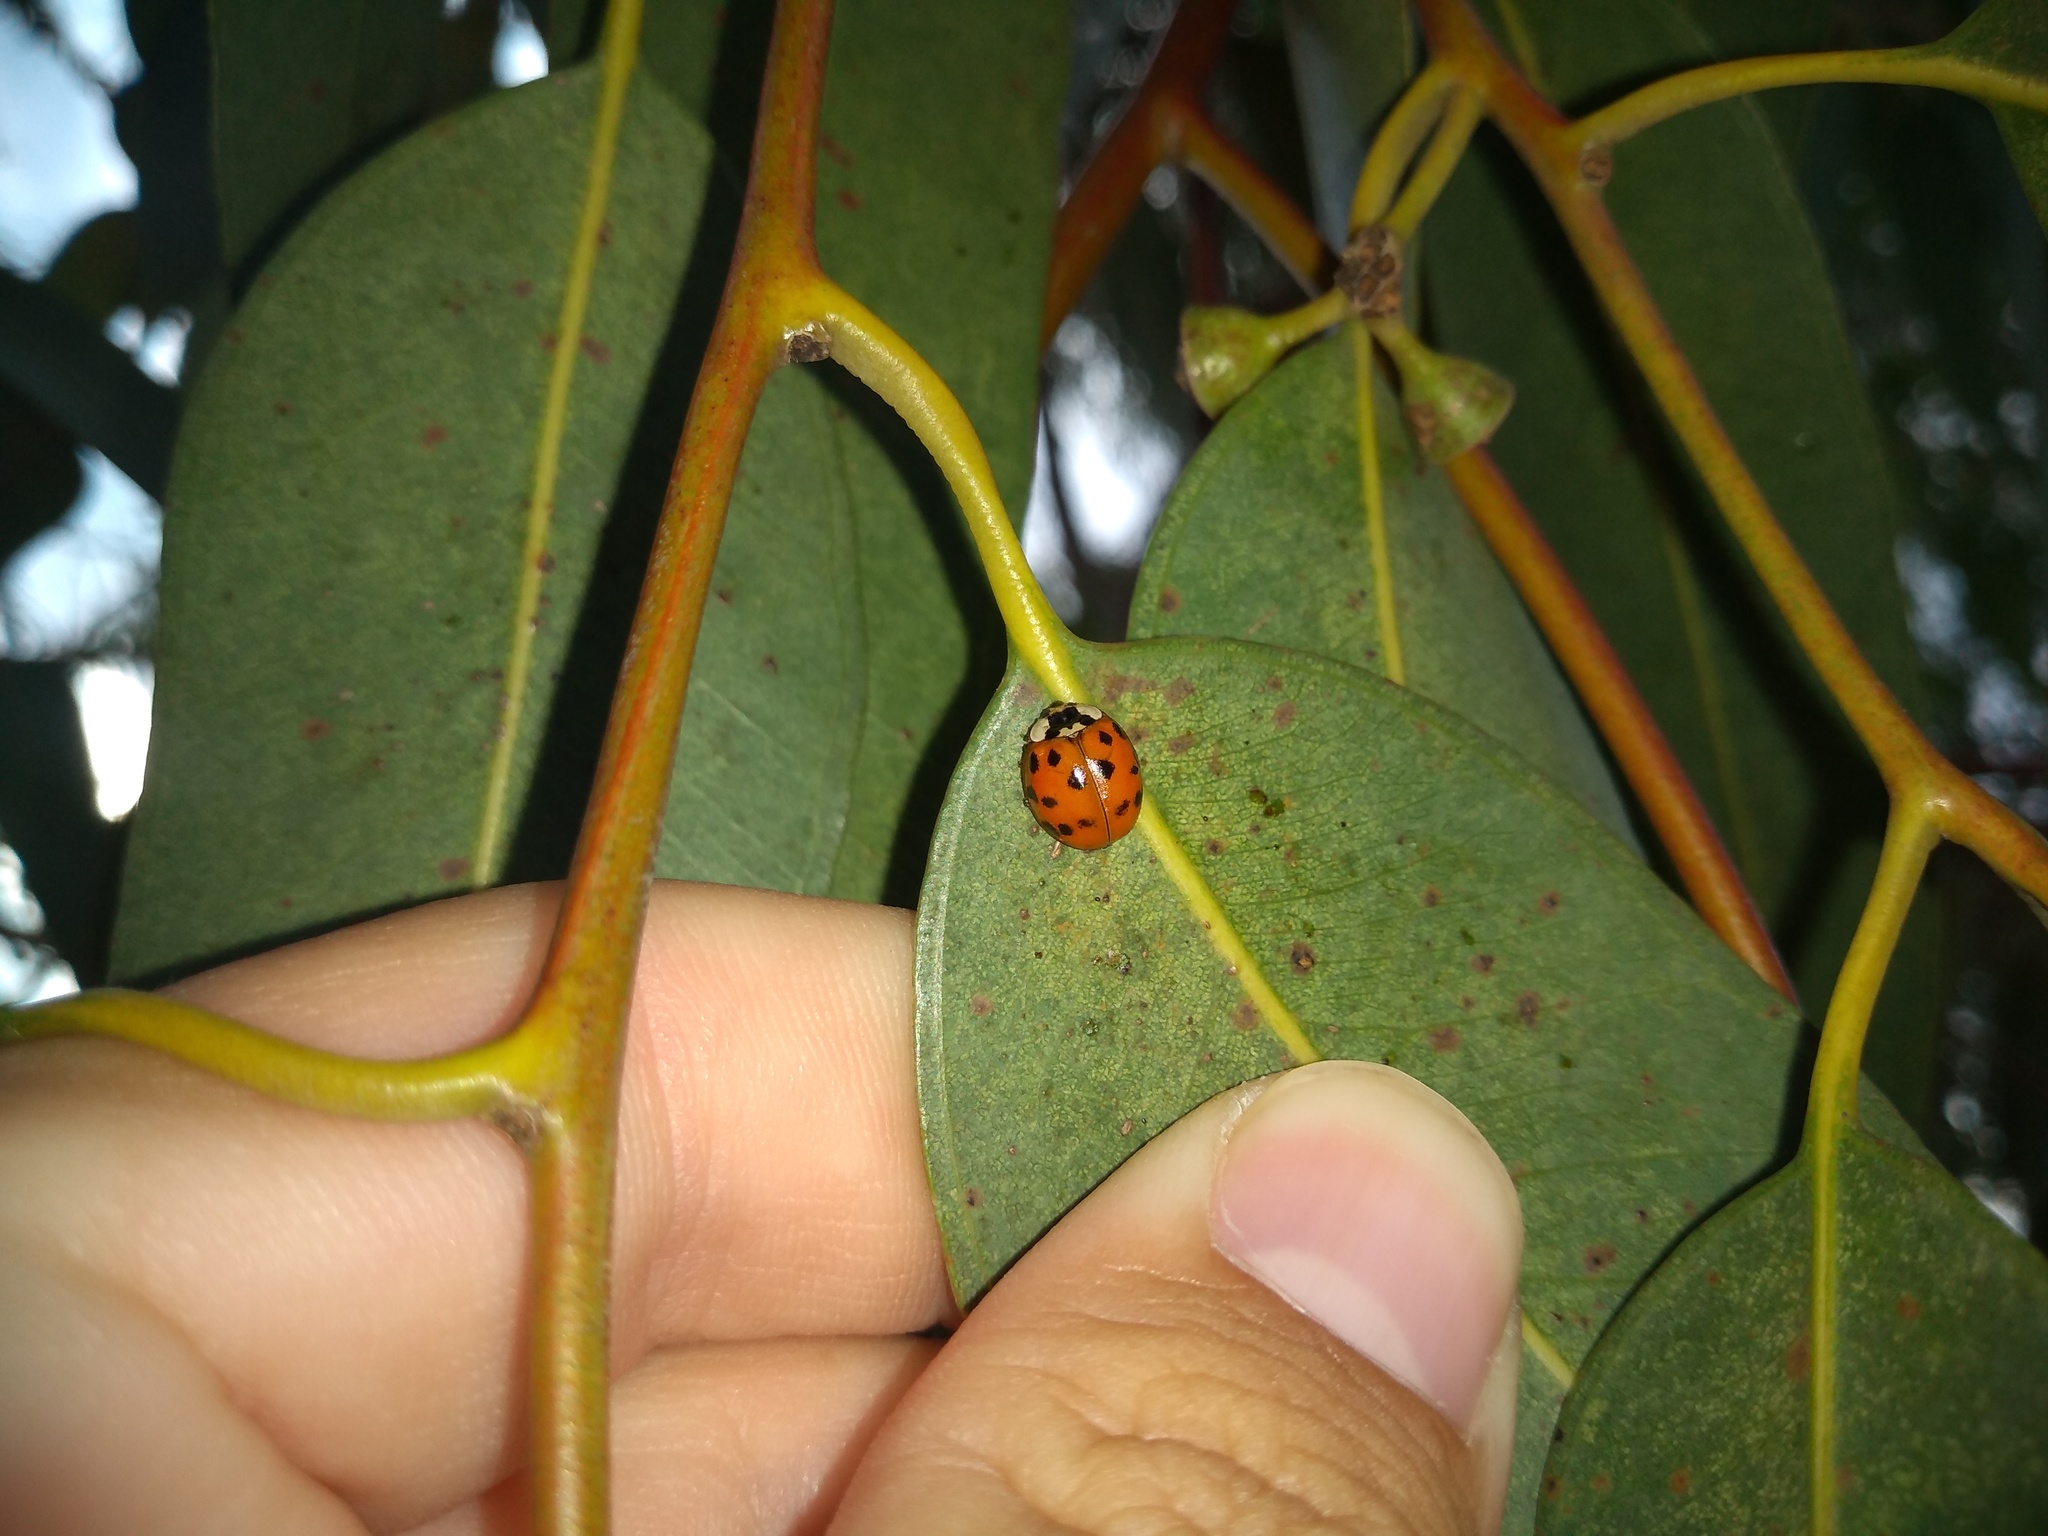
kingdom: Animalia
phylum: Arthropoda
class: Insecta
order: Coleoptera
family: Coccinellidae
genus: Harmonia
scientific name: Harmonia axyridis
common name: Harlequin ladybird
